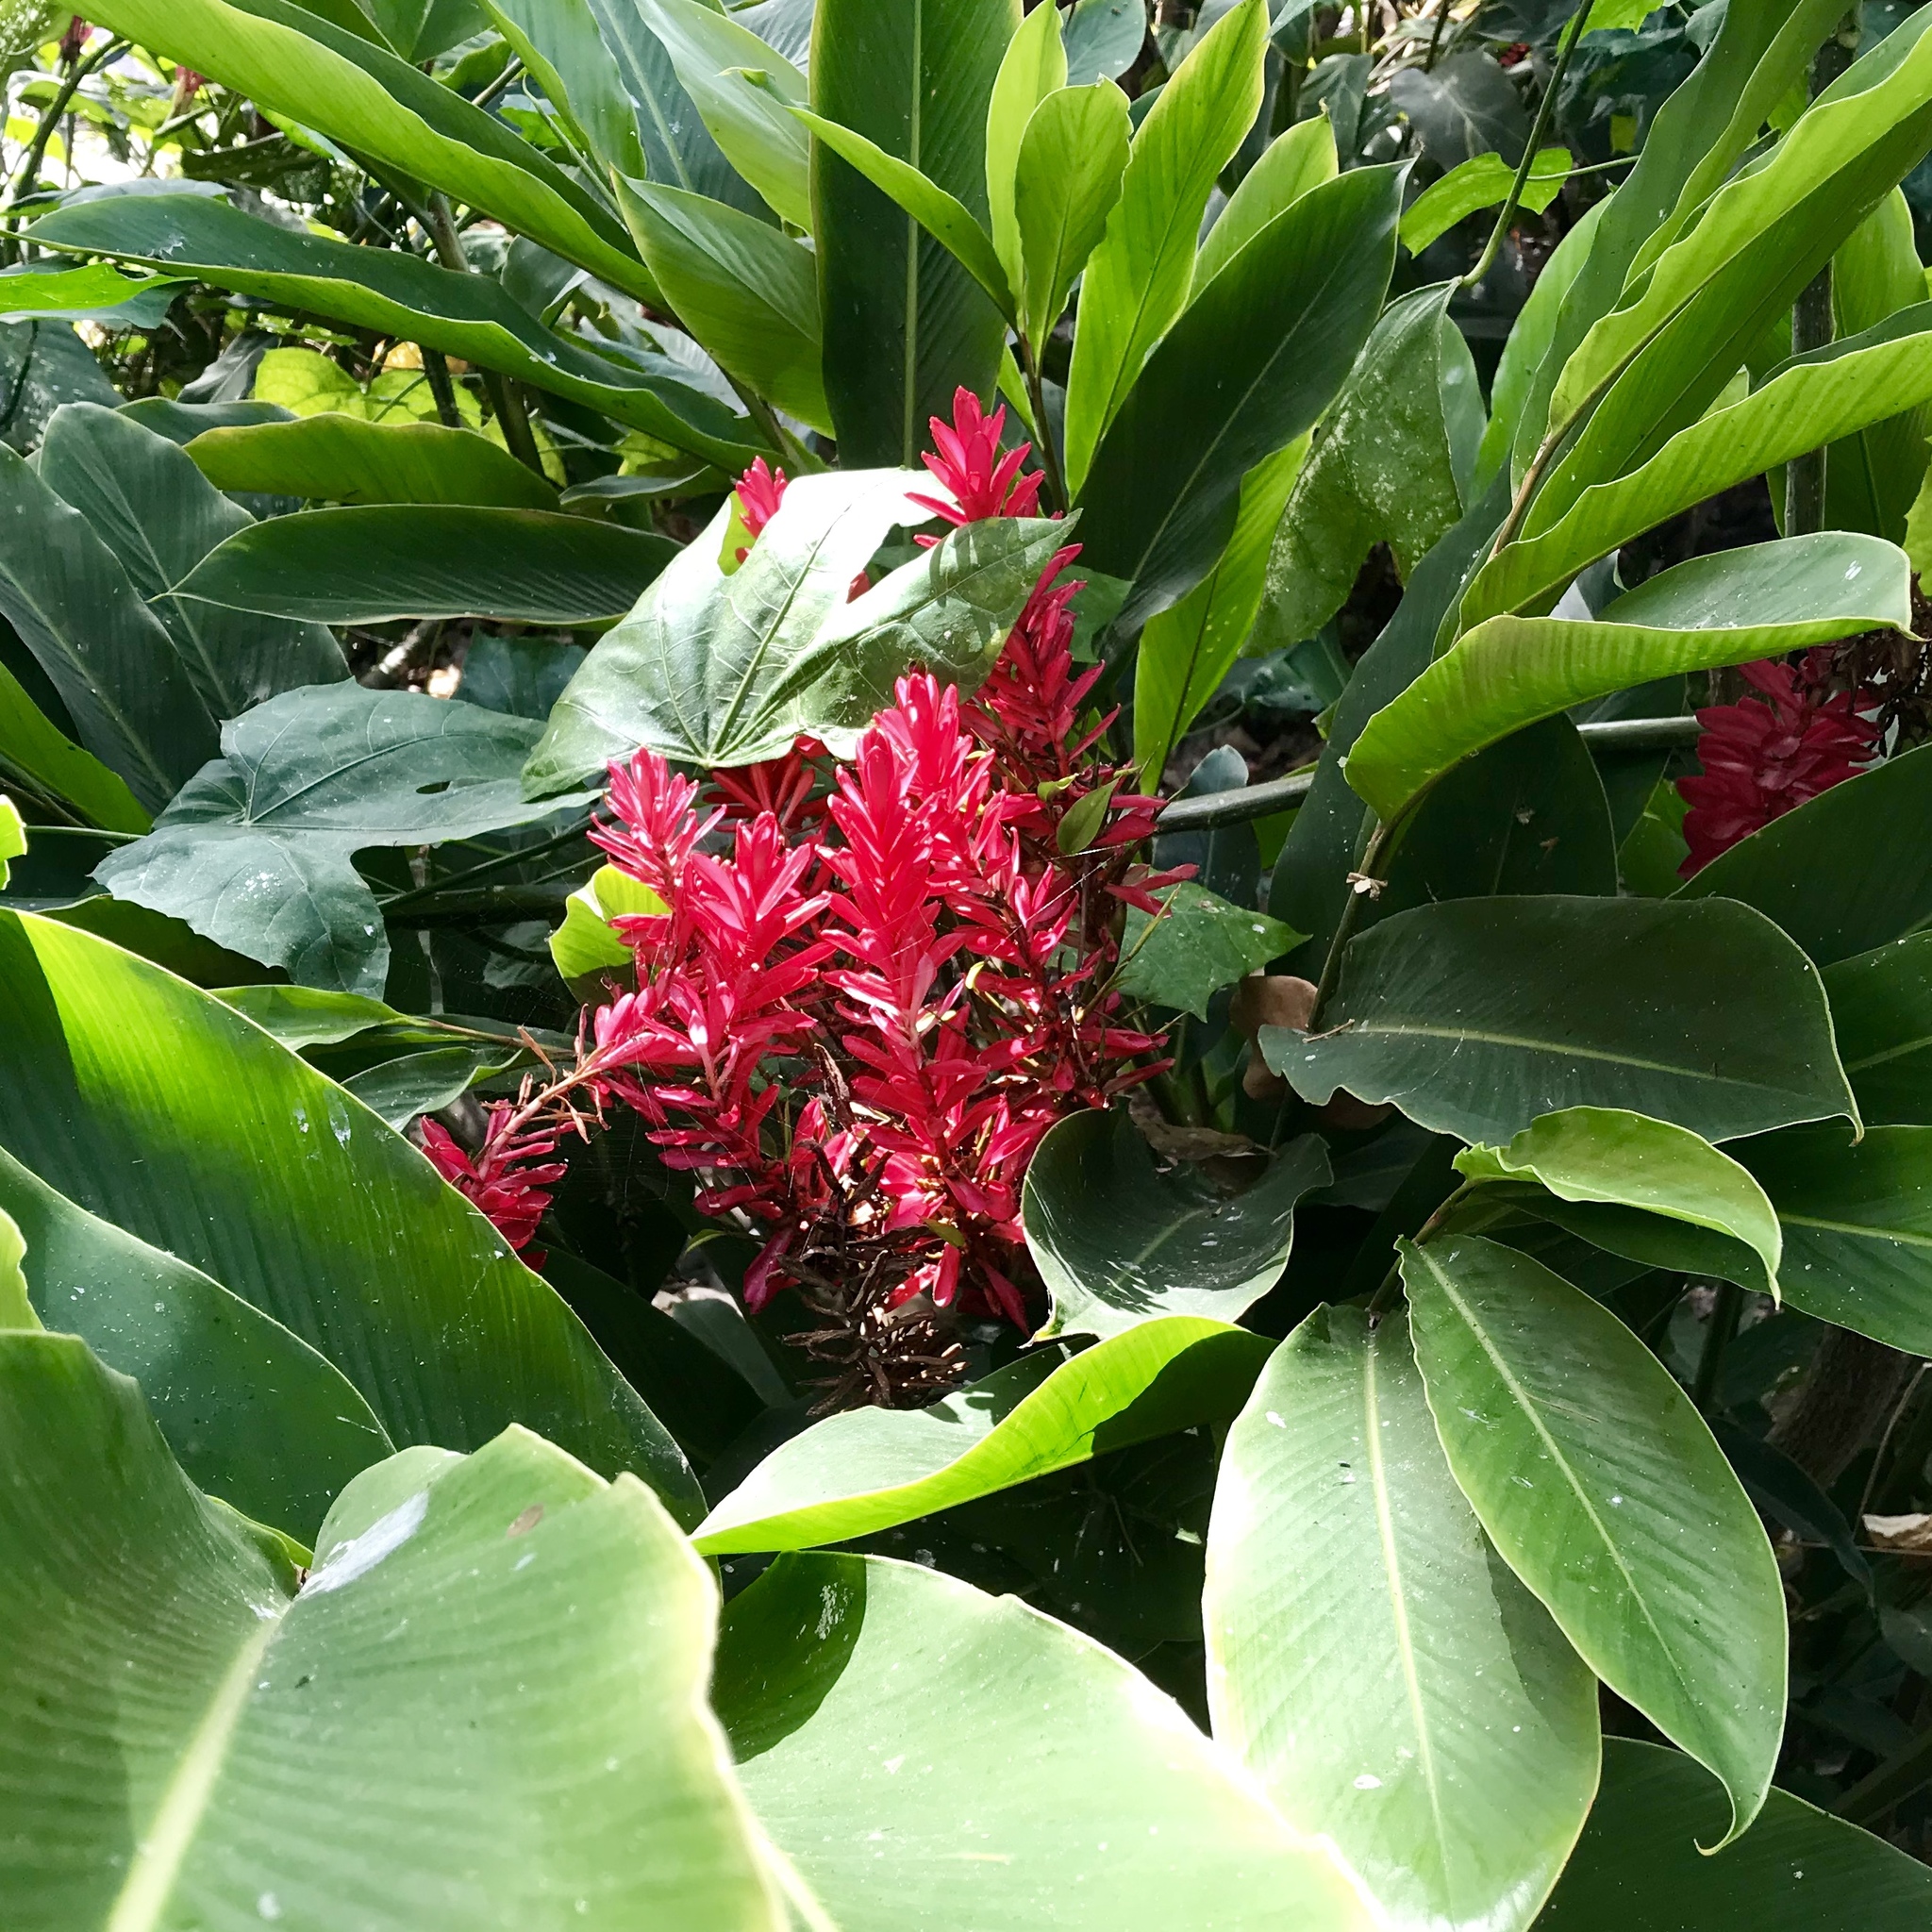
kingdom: Plantae
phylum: Tracheophyta
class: Liliopsida
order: Zingiberales
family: Zingiberaceae
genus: Alpinia
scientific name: Alpinia purpurata
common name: Red ginger
